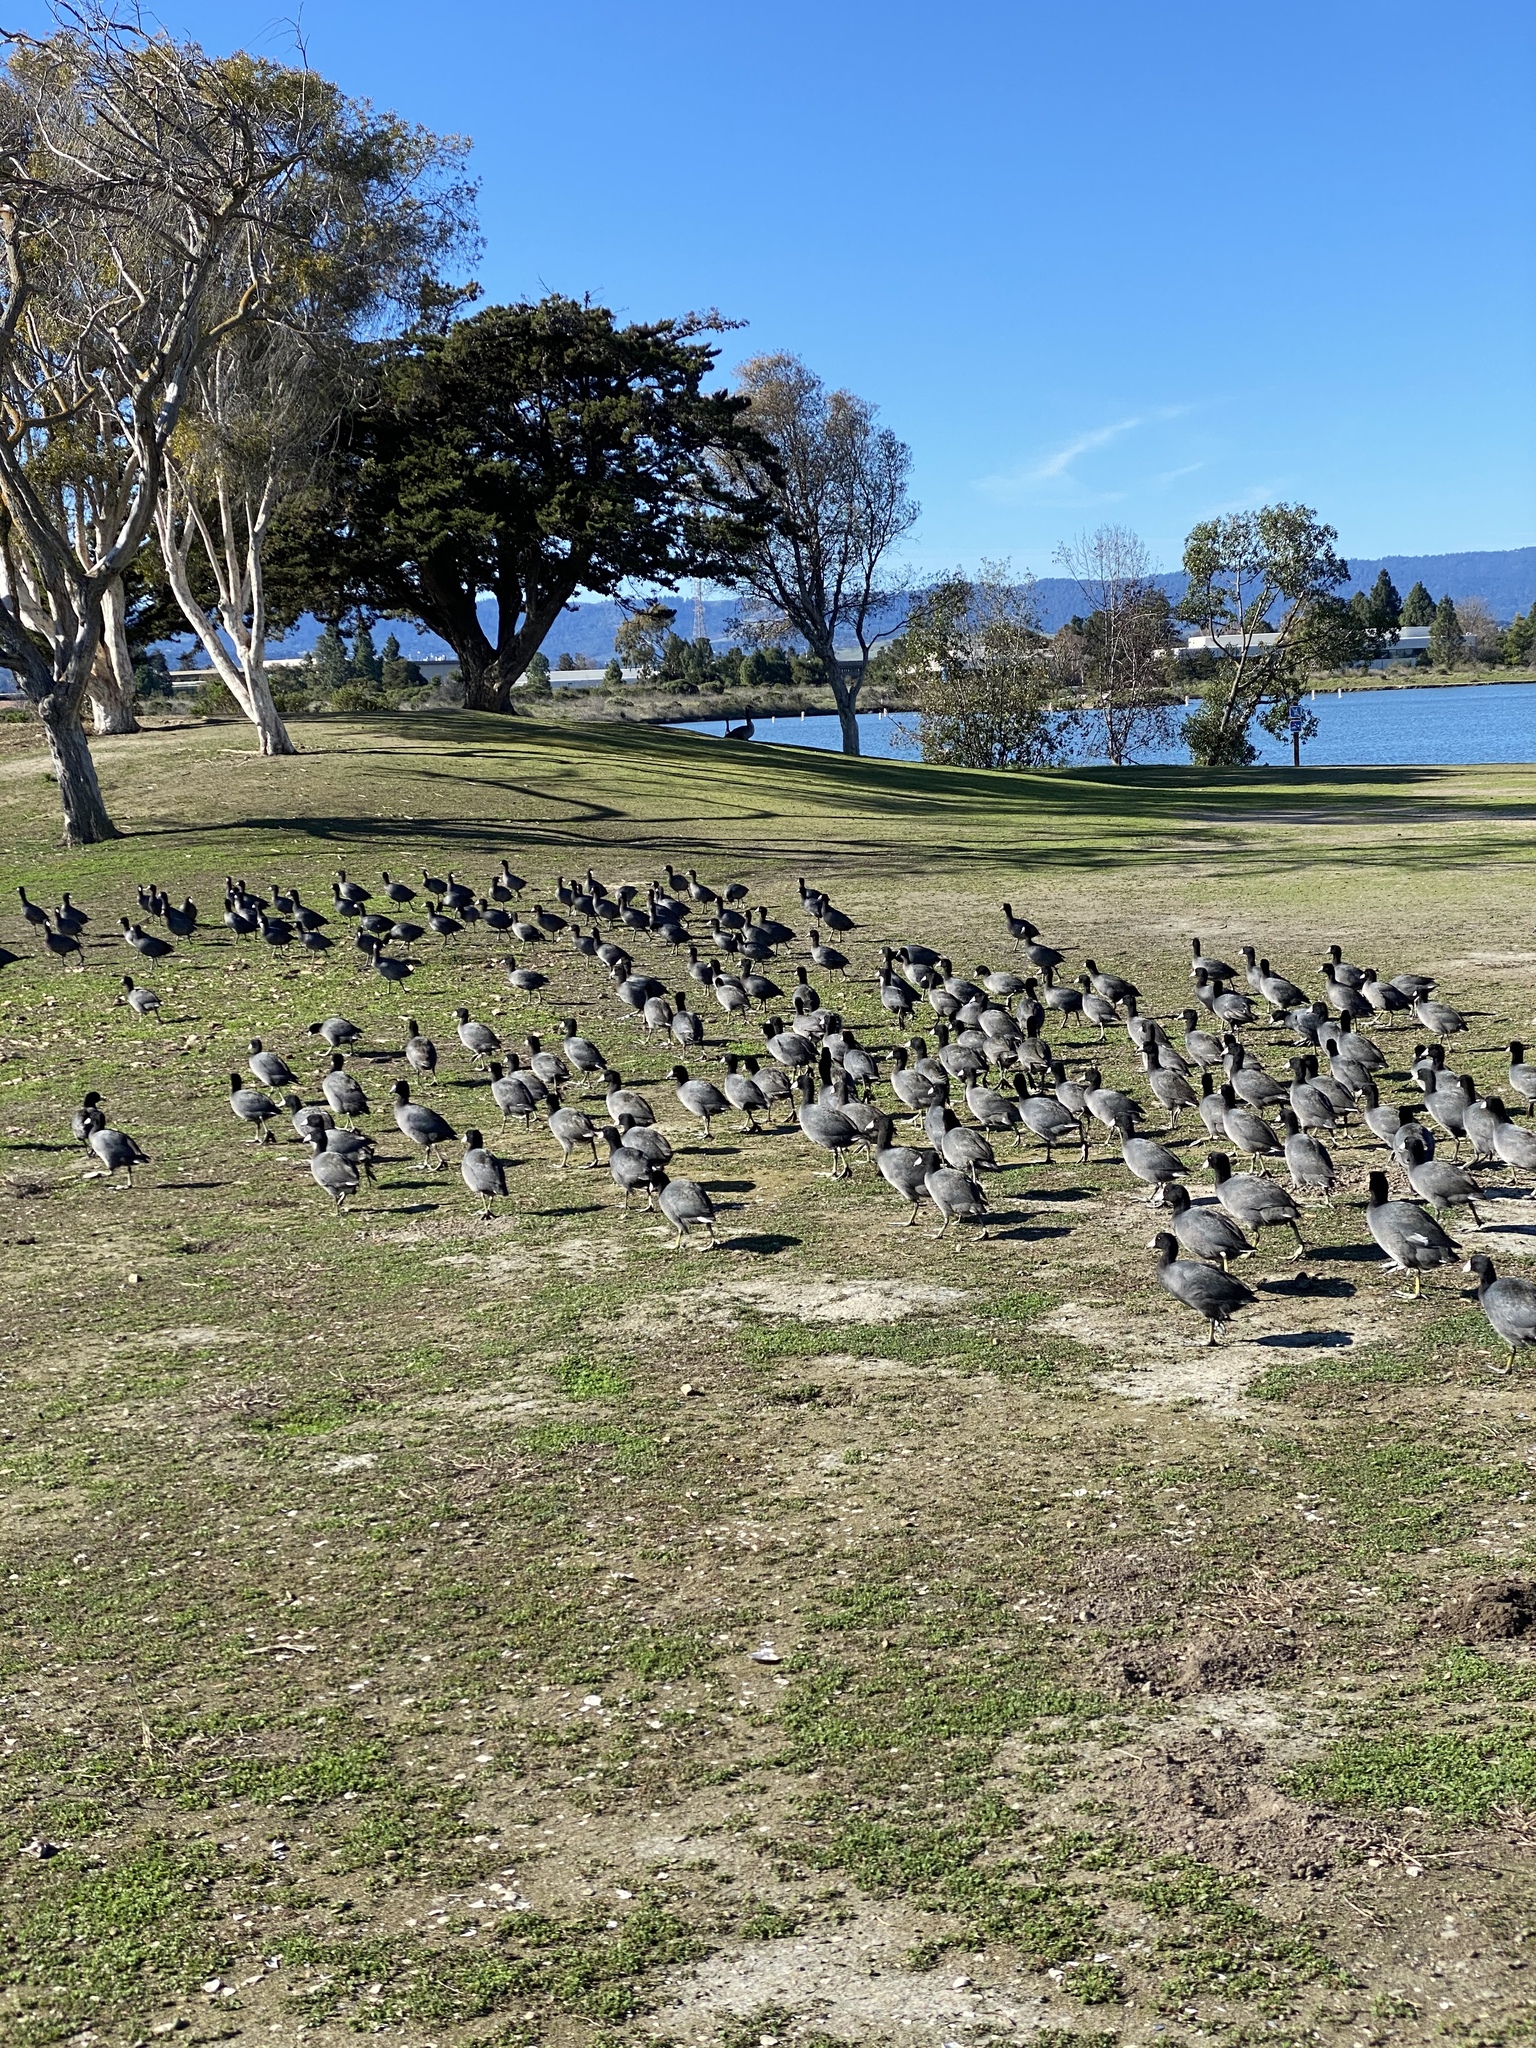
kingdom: Animalia
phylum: Chordata
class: Aves
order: Gruiformes
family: Rallidae
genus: Fulica
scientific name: Fulica americana
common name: American coot
